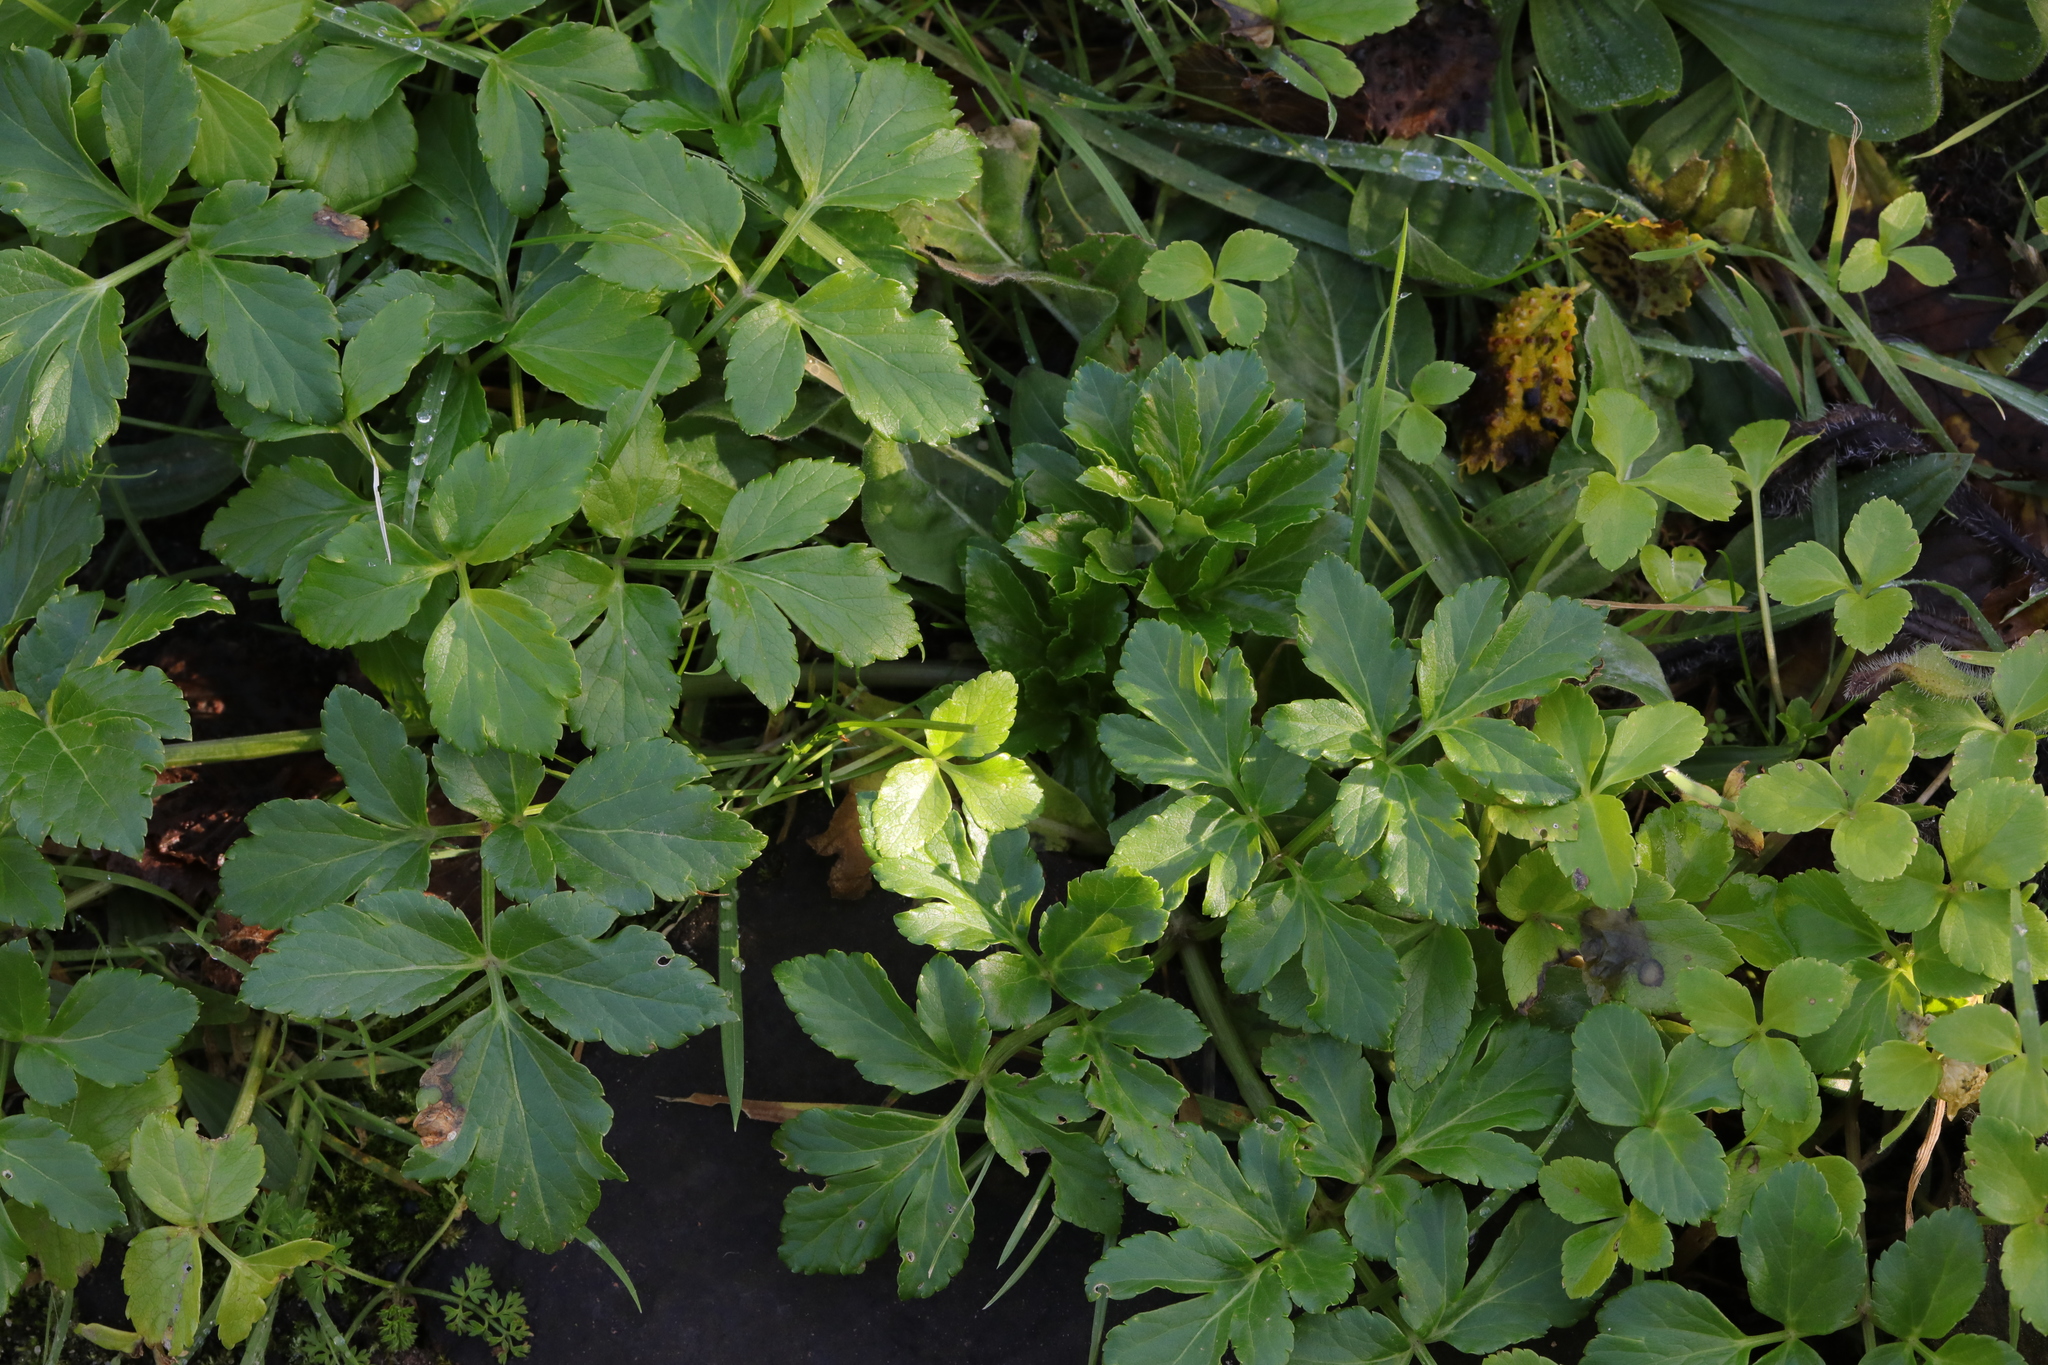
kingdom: Plantae
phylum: Tracheophyta
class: Magnoliopsida
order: Apiales
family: Apiaceae
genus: Aegopodium
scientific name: Aegopodium podagraria
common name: Ground-elder
